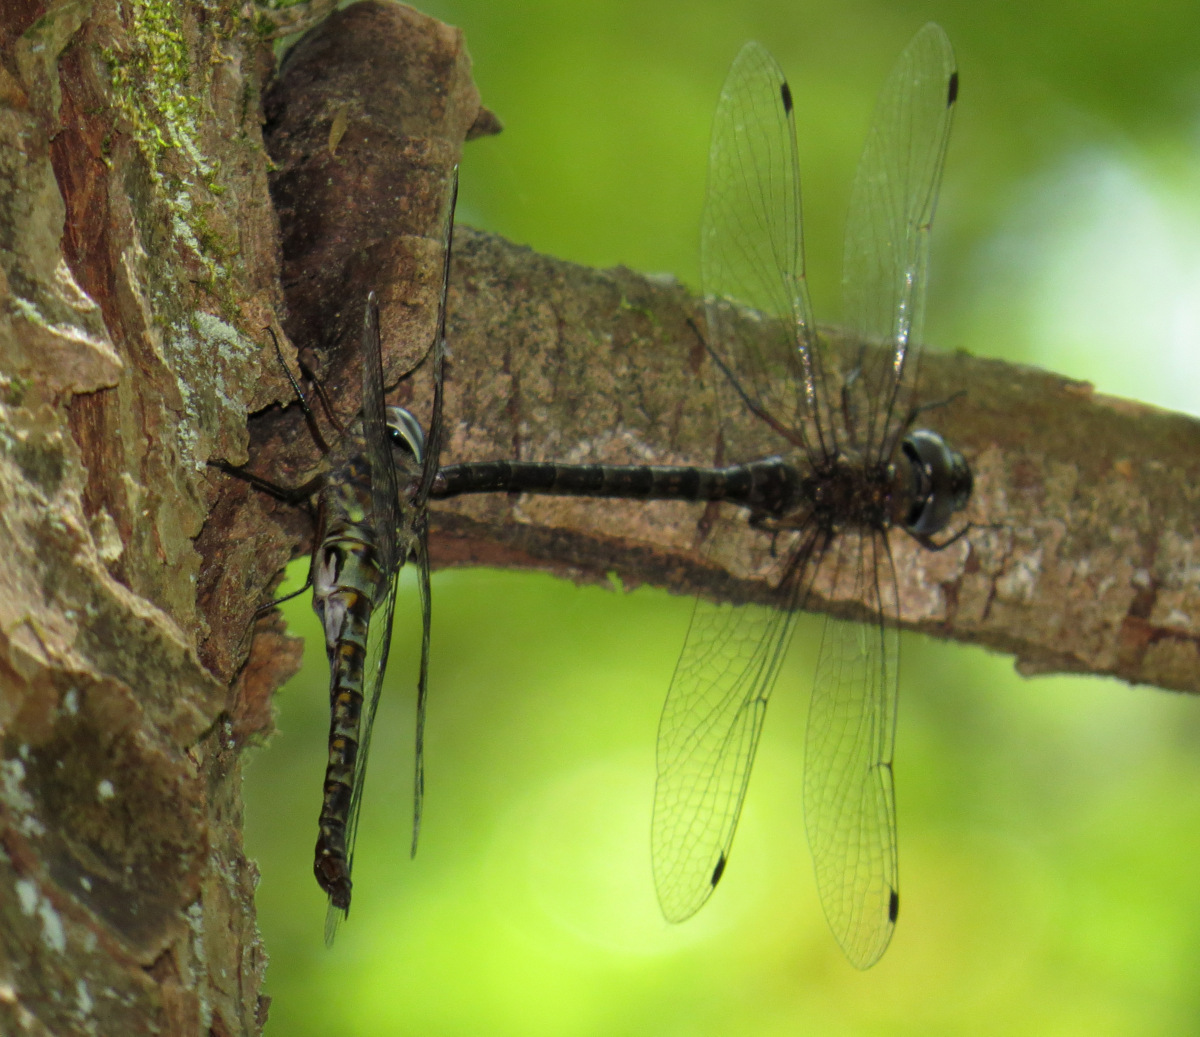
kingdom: Animalia
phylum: Arthropoda
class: Insecta
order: Odonata
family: Aeshnidae
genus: Gomphaeschna
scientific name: Gomphaeschna antilope
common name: Taper-tailed darner
